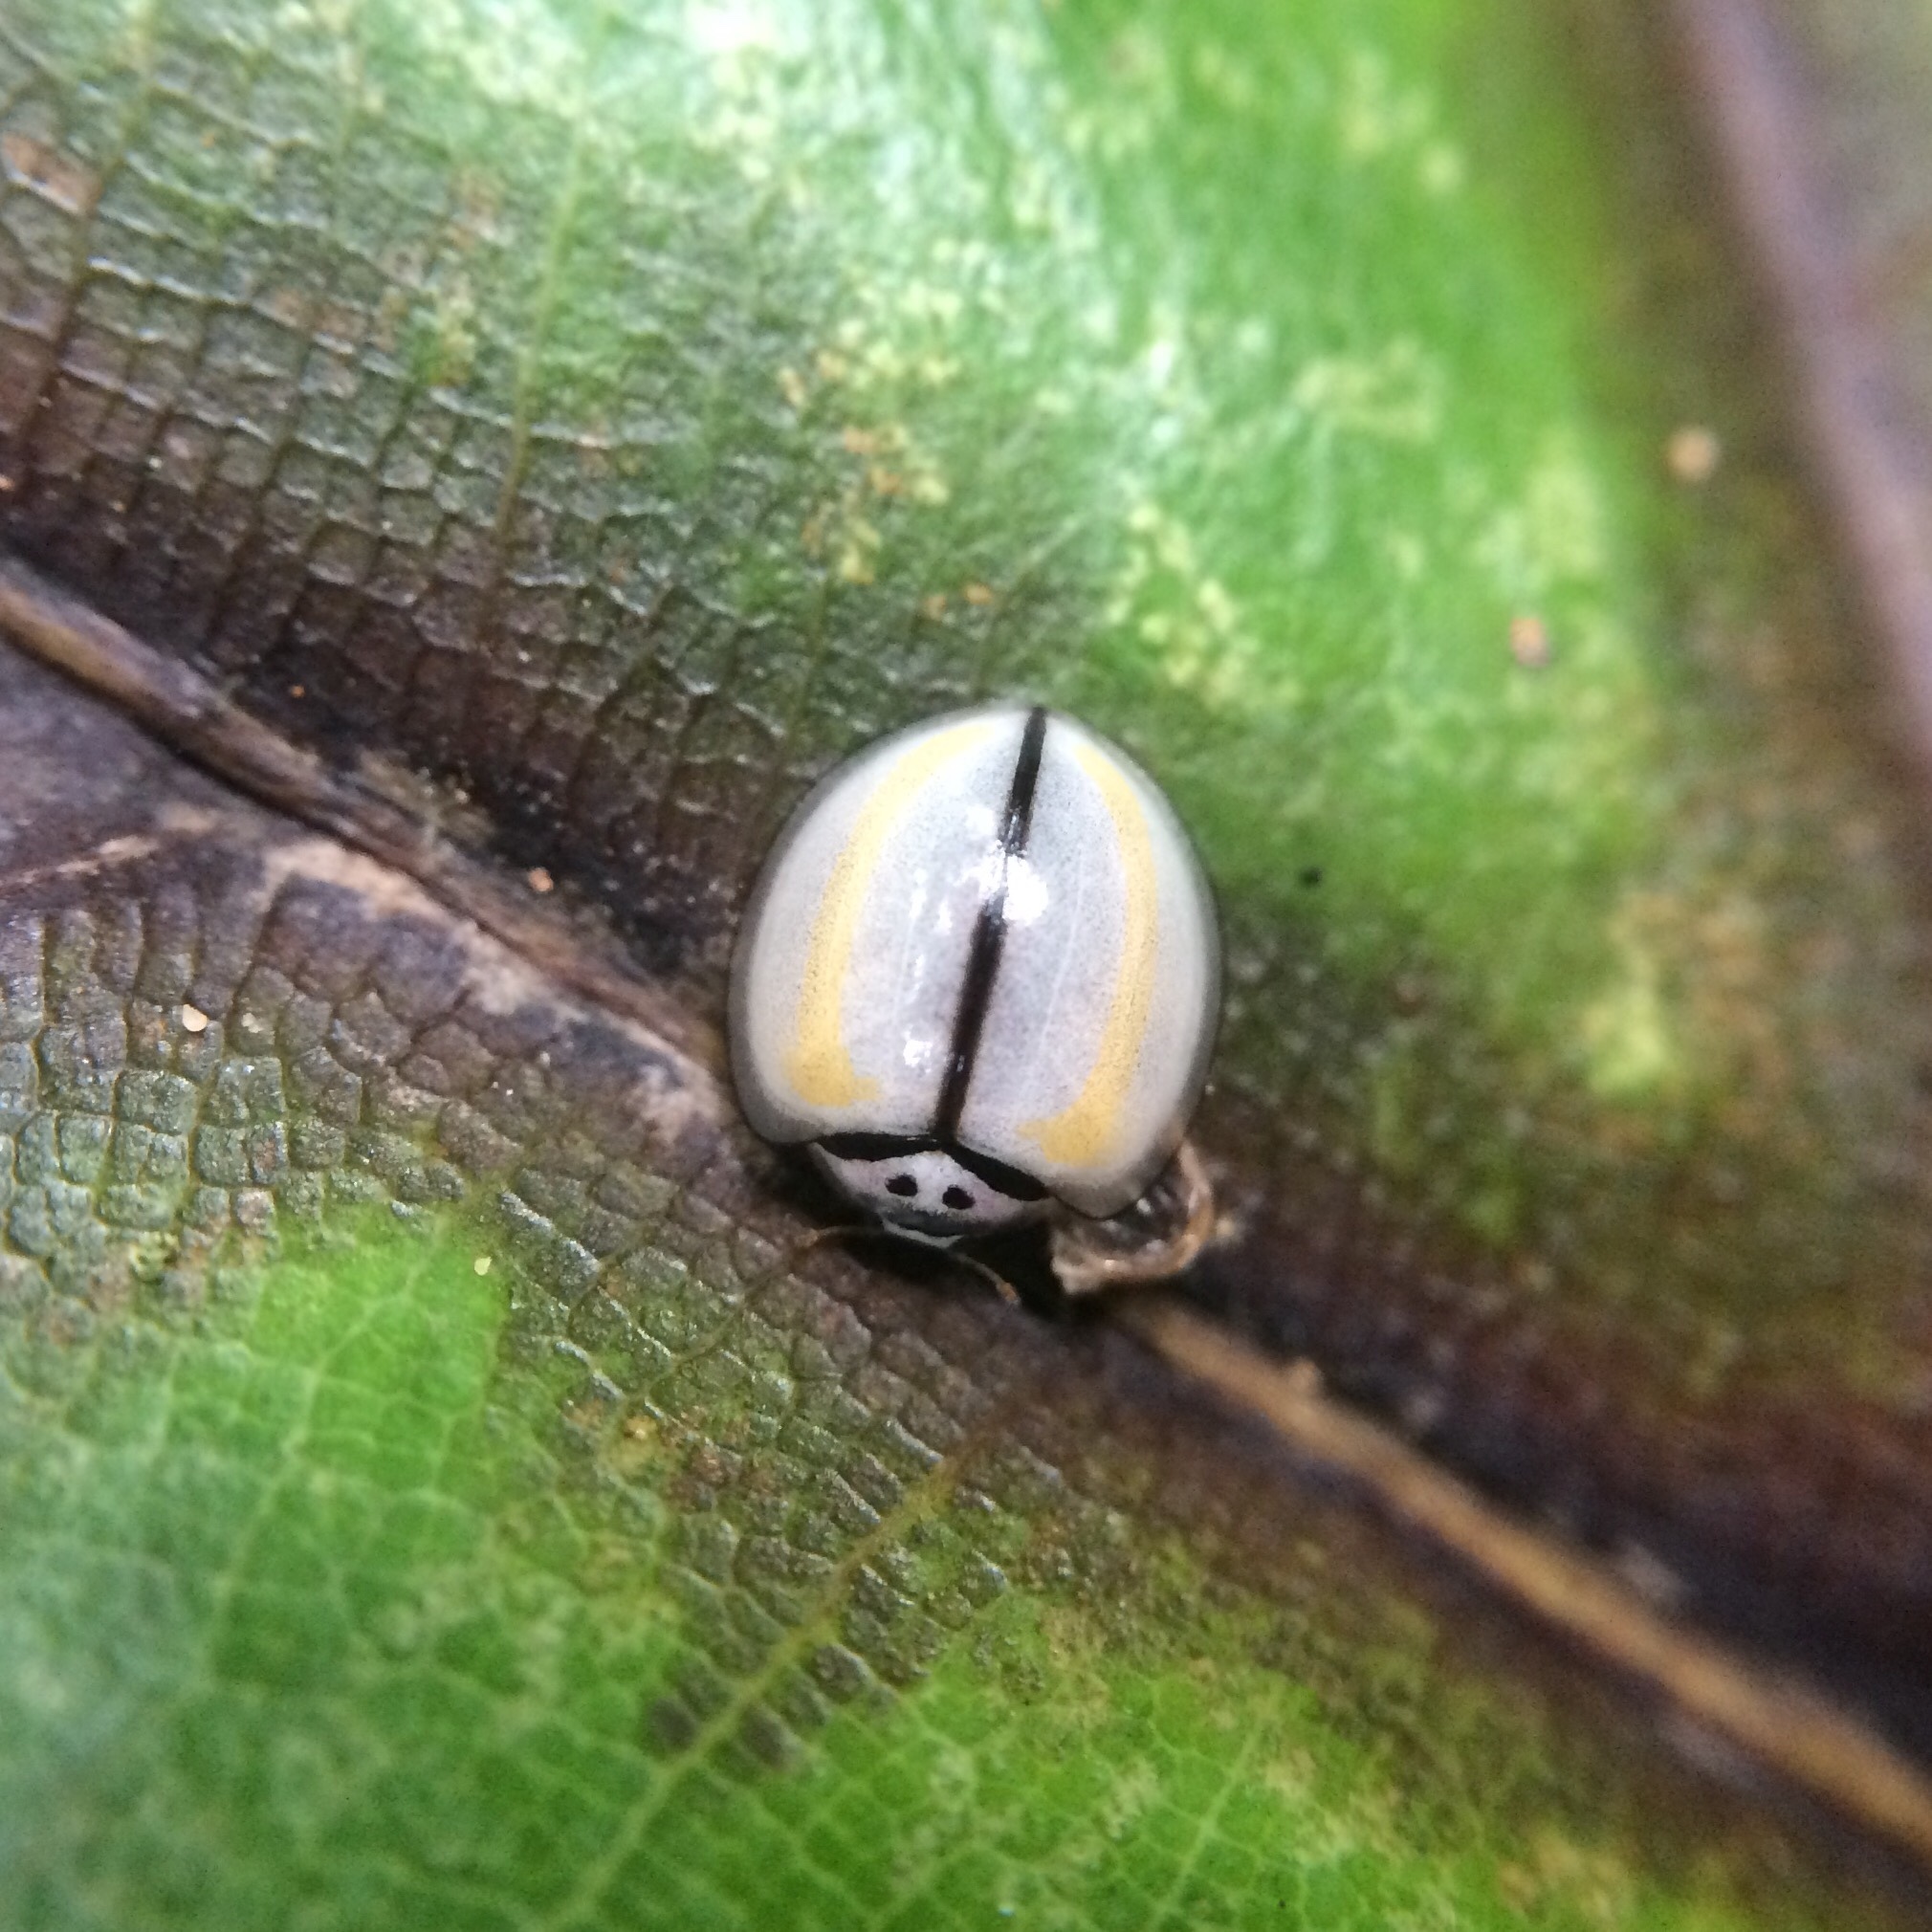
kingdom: Animalia
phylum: Arthropoda
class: Insecta
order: Coleoptera
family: Coccinellidae
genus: Oenopia
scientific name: Oenopia
